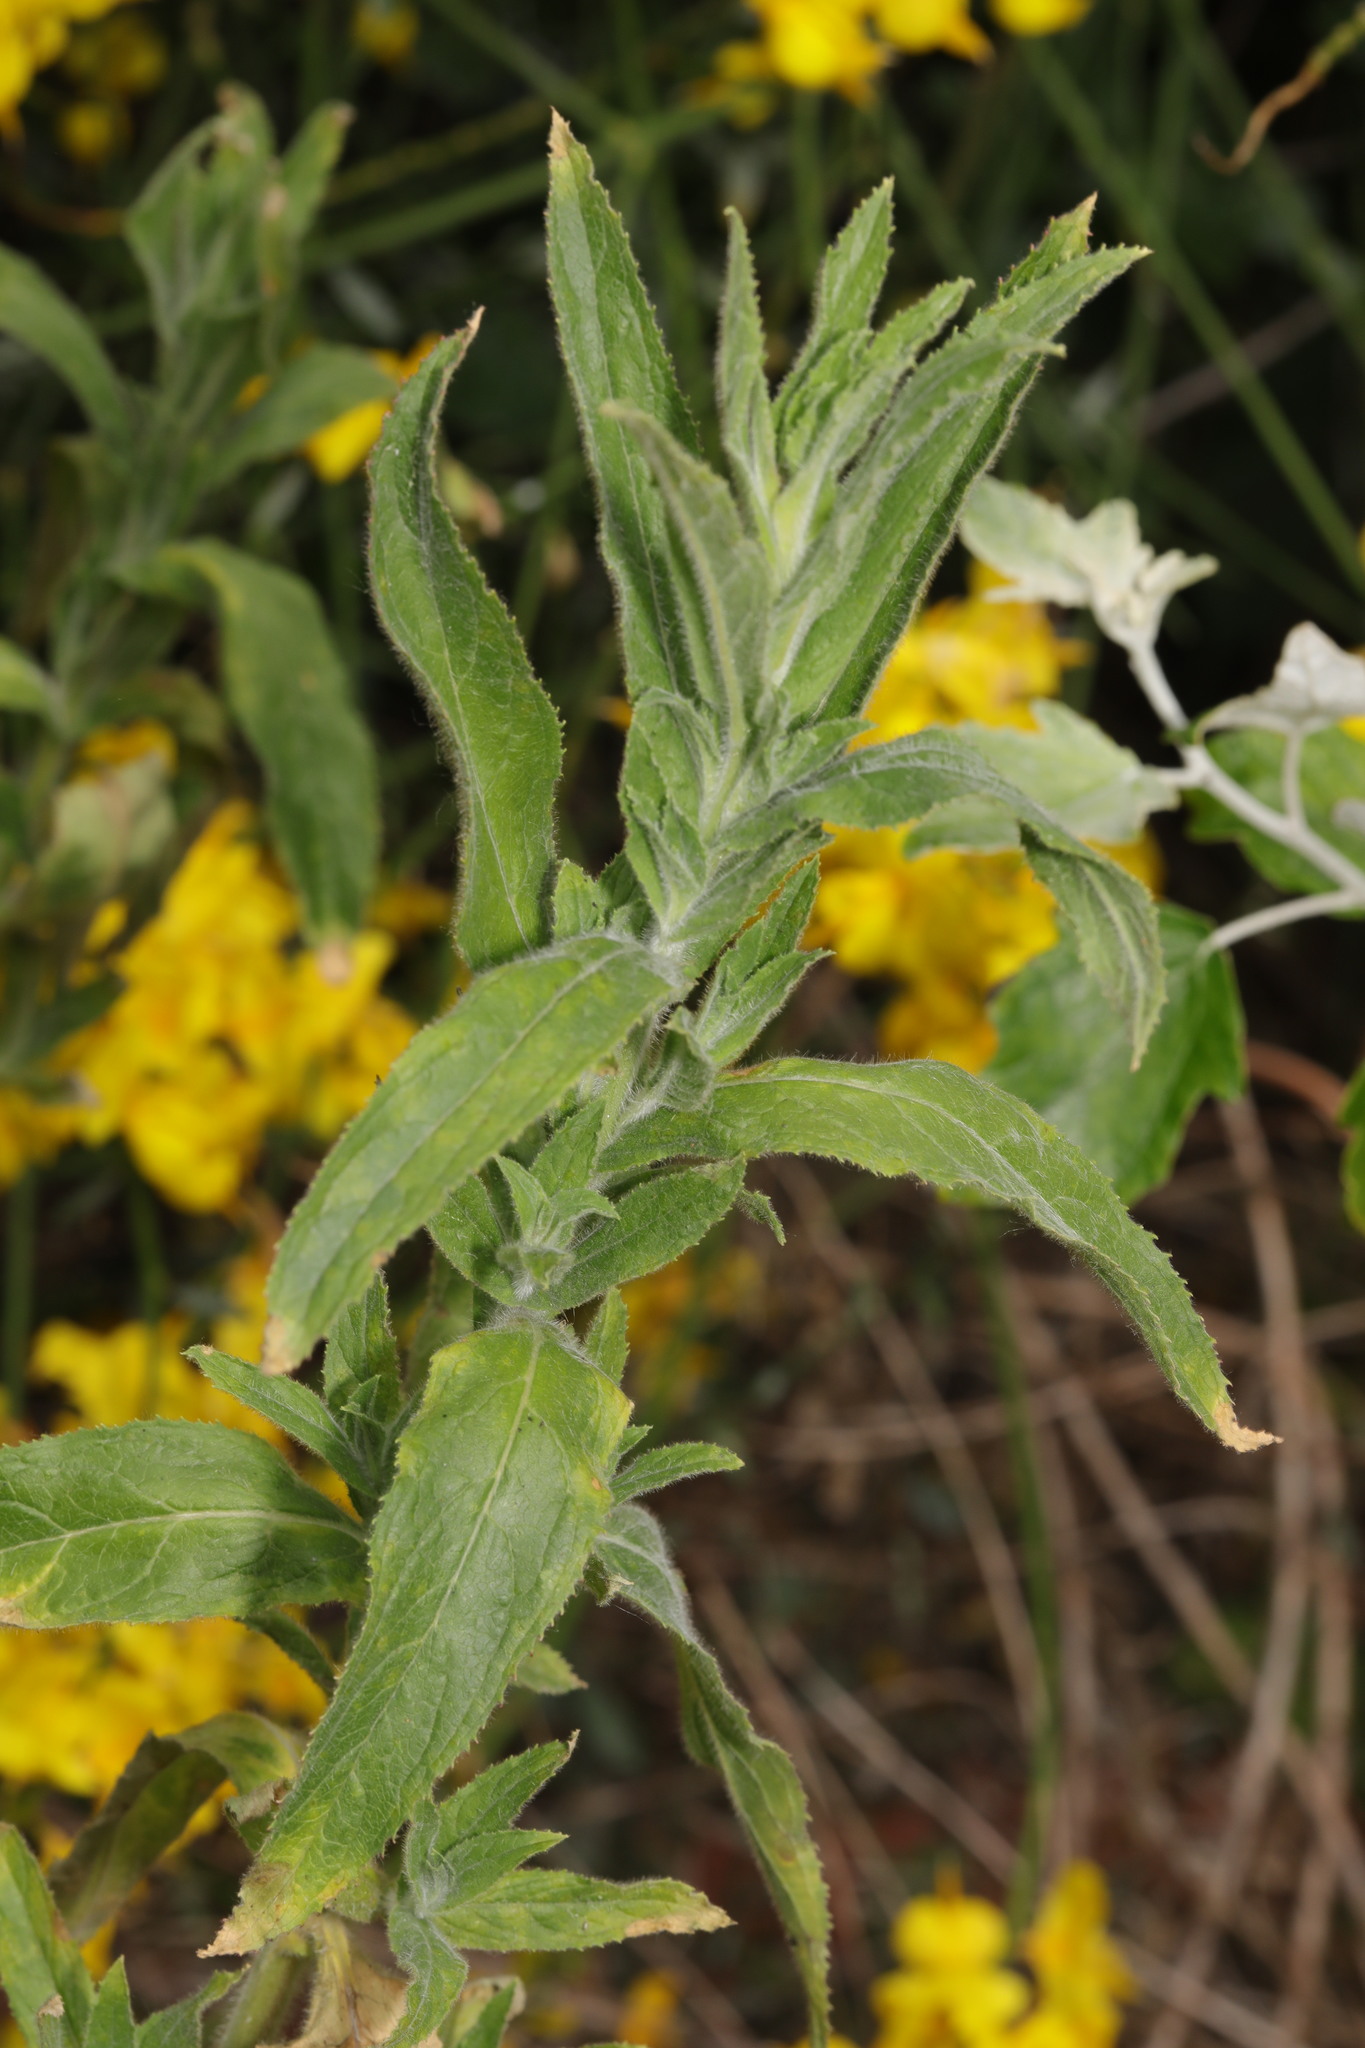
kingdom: Plantae
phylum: Tracheophyta
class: Magnoliopsida
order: Myrtales
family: Onagraceae
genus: Epilobium
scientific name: Epilobium hirsutum
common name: Great willowherb
